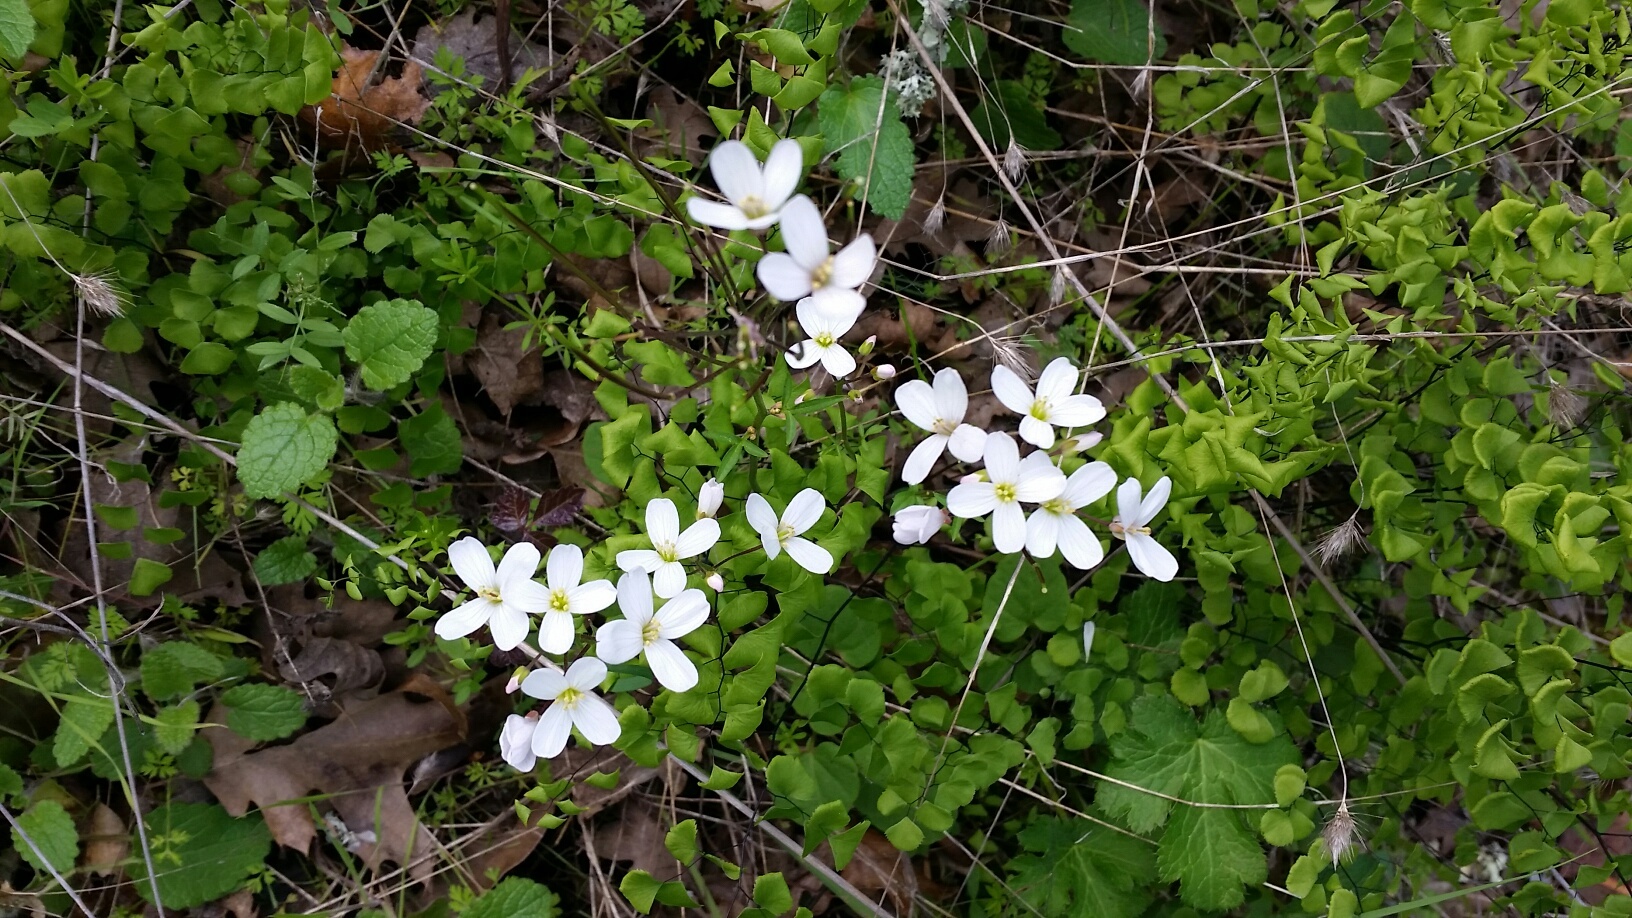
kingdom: Plantae
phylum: Tracheophyta
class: Magnoliopsida
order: Brassicales
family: Brassicaceae
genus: Cardamine
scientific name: Cardamine californica
